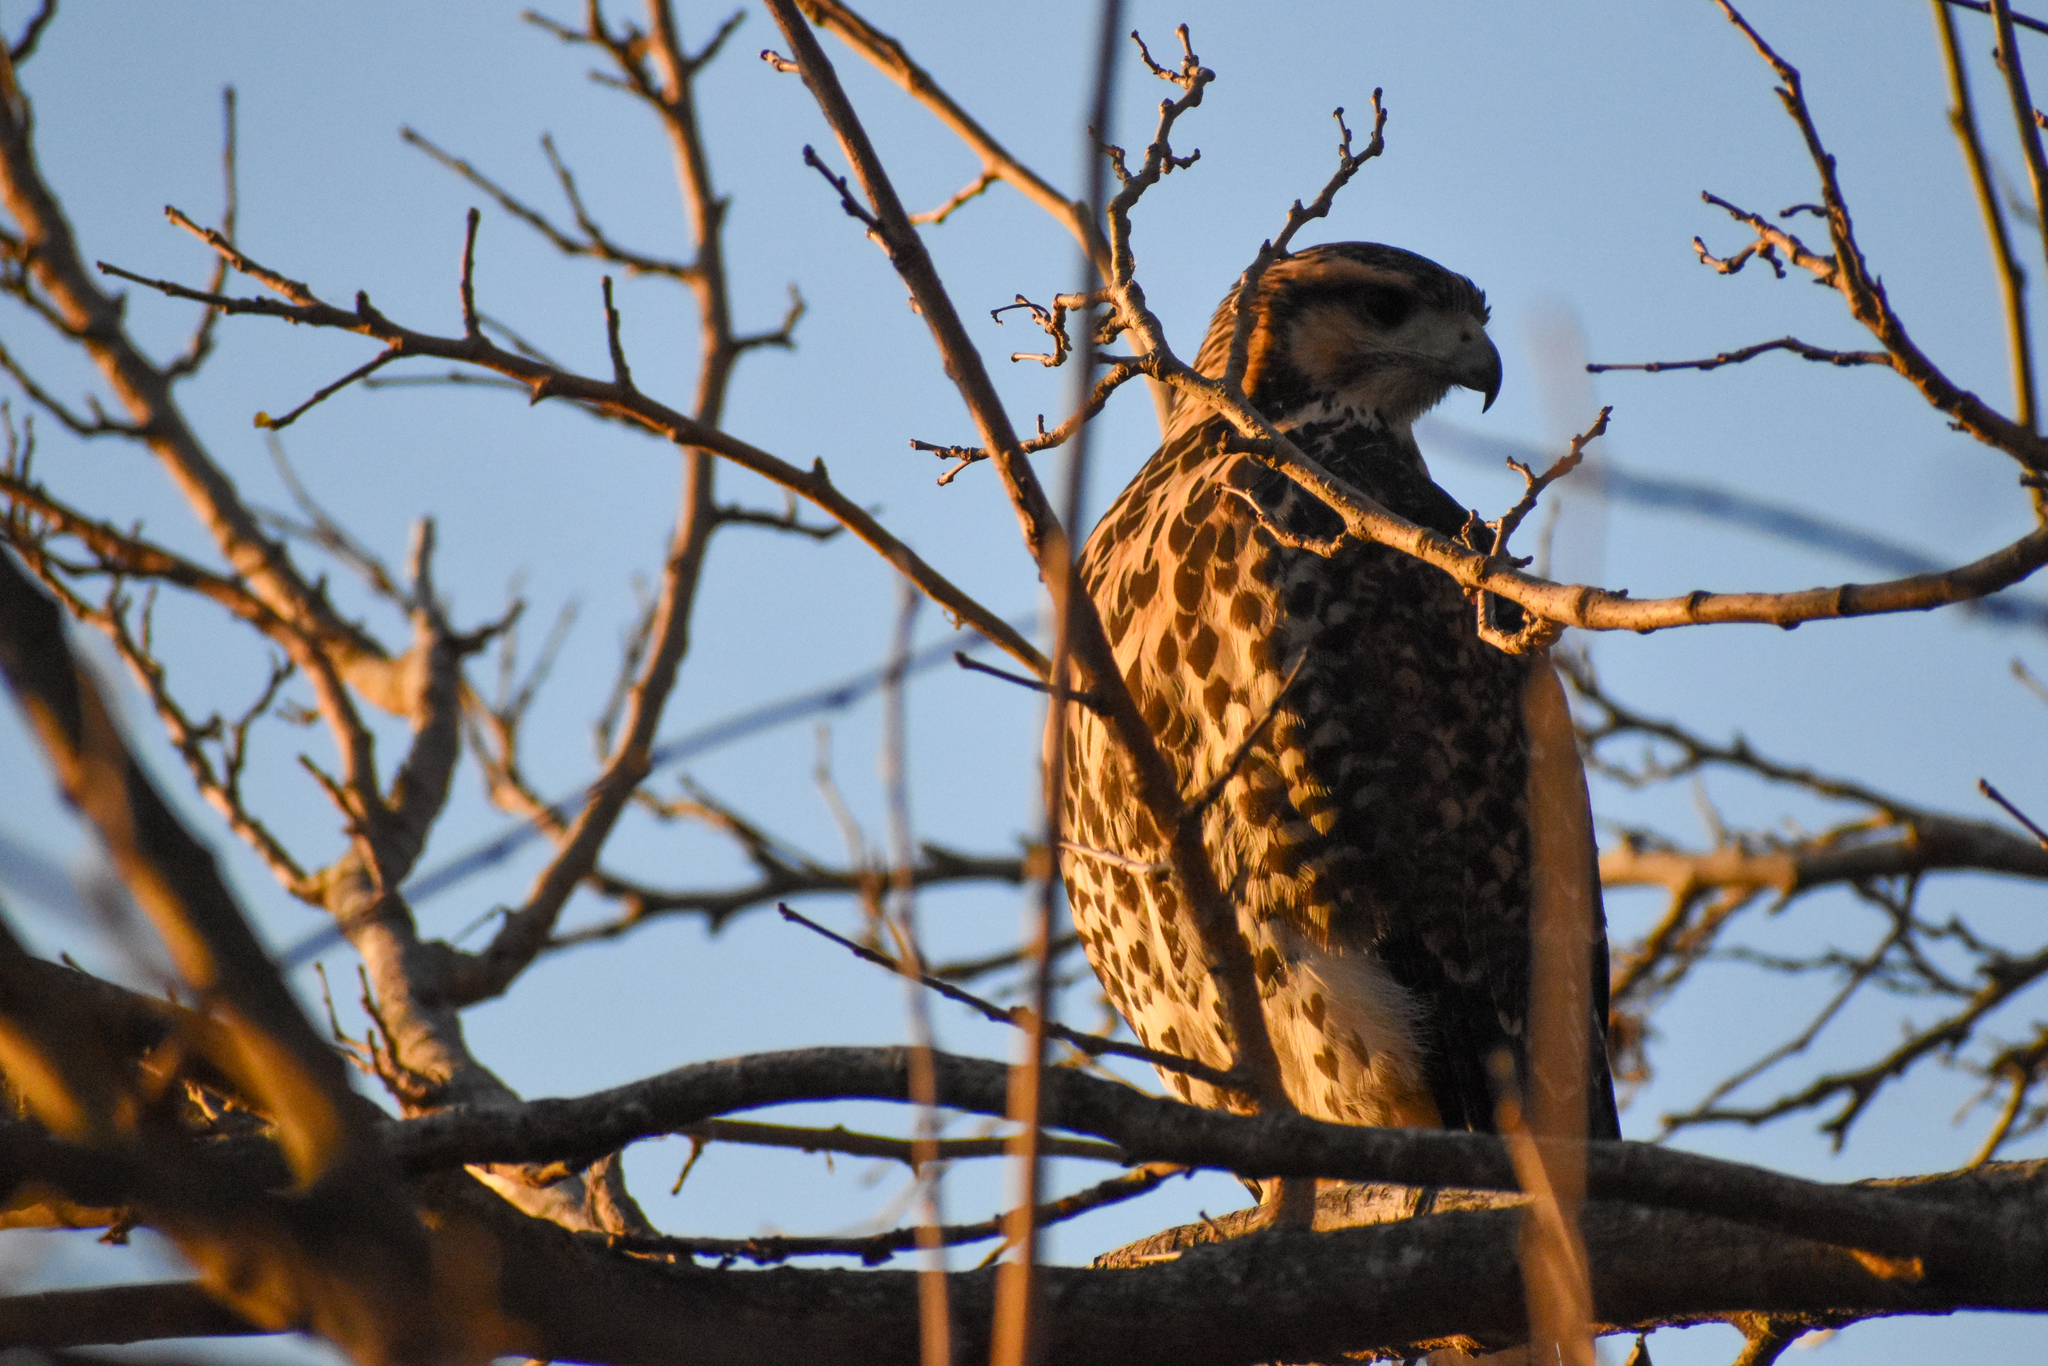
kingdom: Animalia
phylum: Chordata
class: Aves
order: Accipitriformes
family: Accipitridae
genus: Parabuteo
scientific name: Parabuteo unicinctus
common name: Harris's hawk
